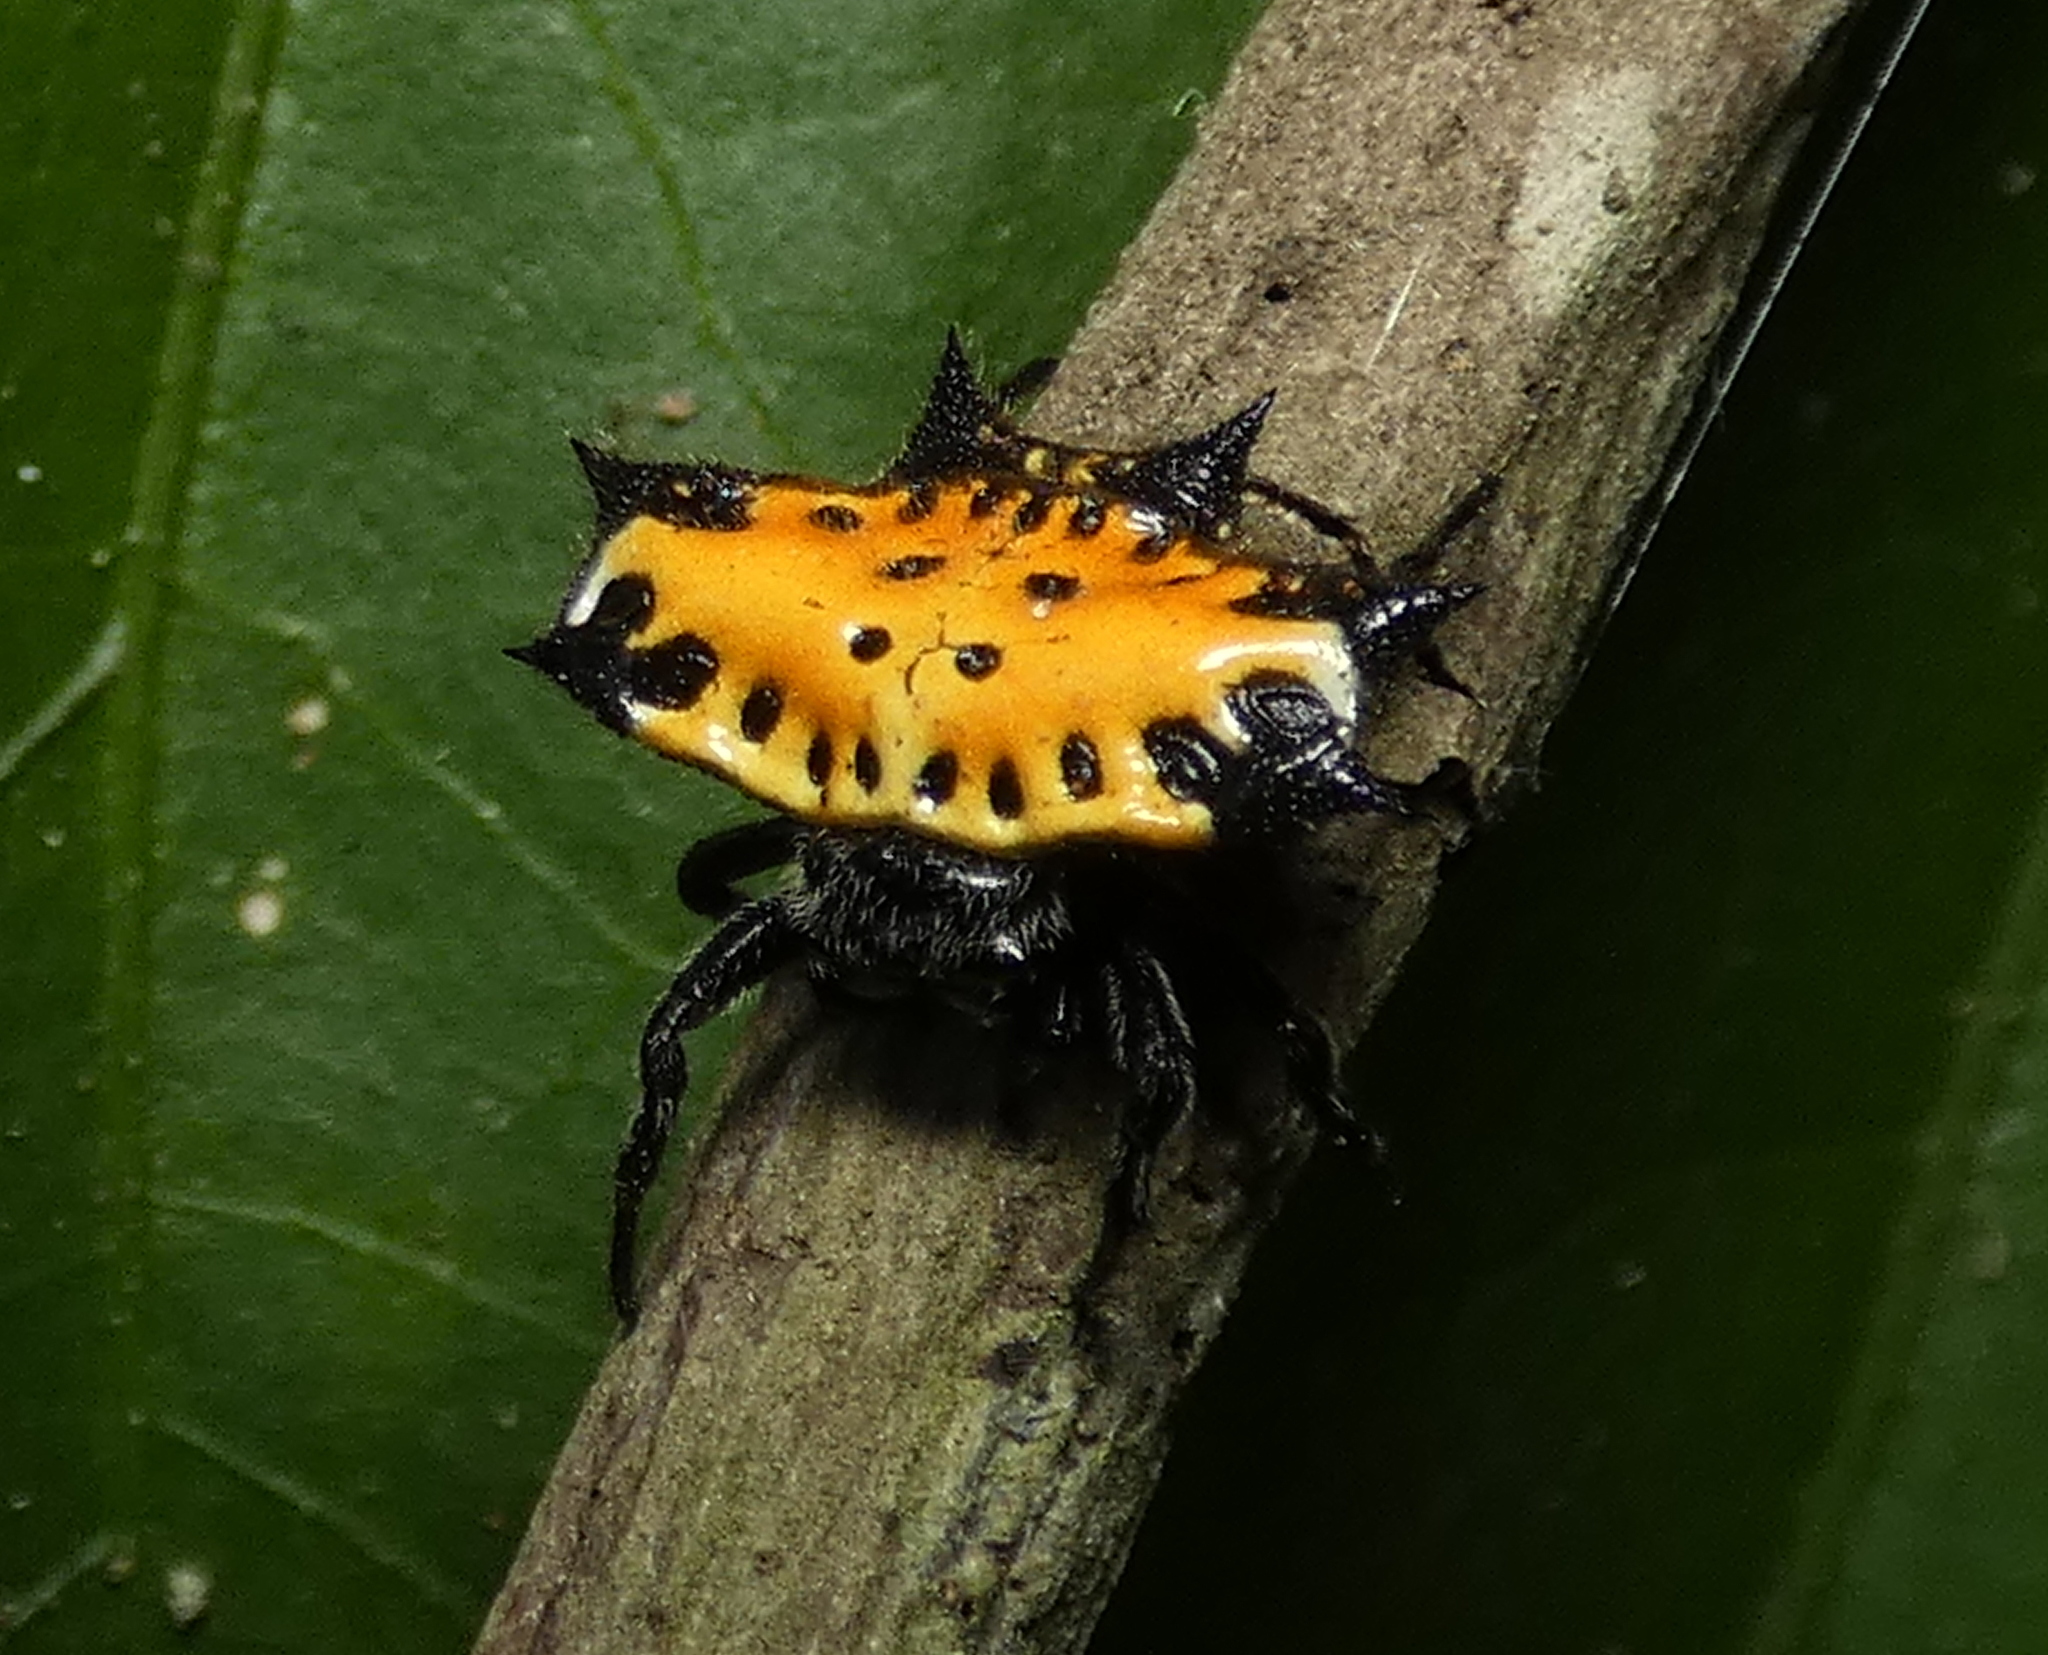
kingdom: Animalia
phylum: Arthropoda
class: Arachnida
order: Araneae
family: Araneidae
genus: Gasteracantha
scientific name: Gasteracantha cancriformis
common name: Orb weavers
